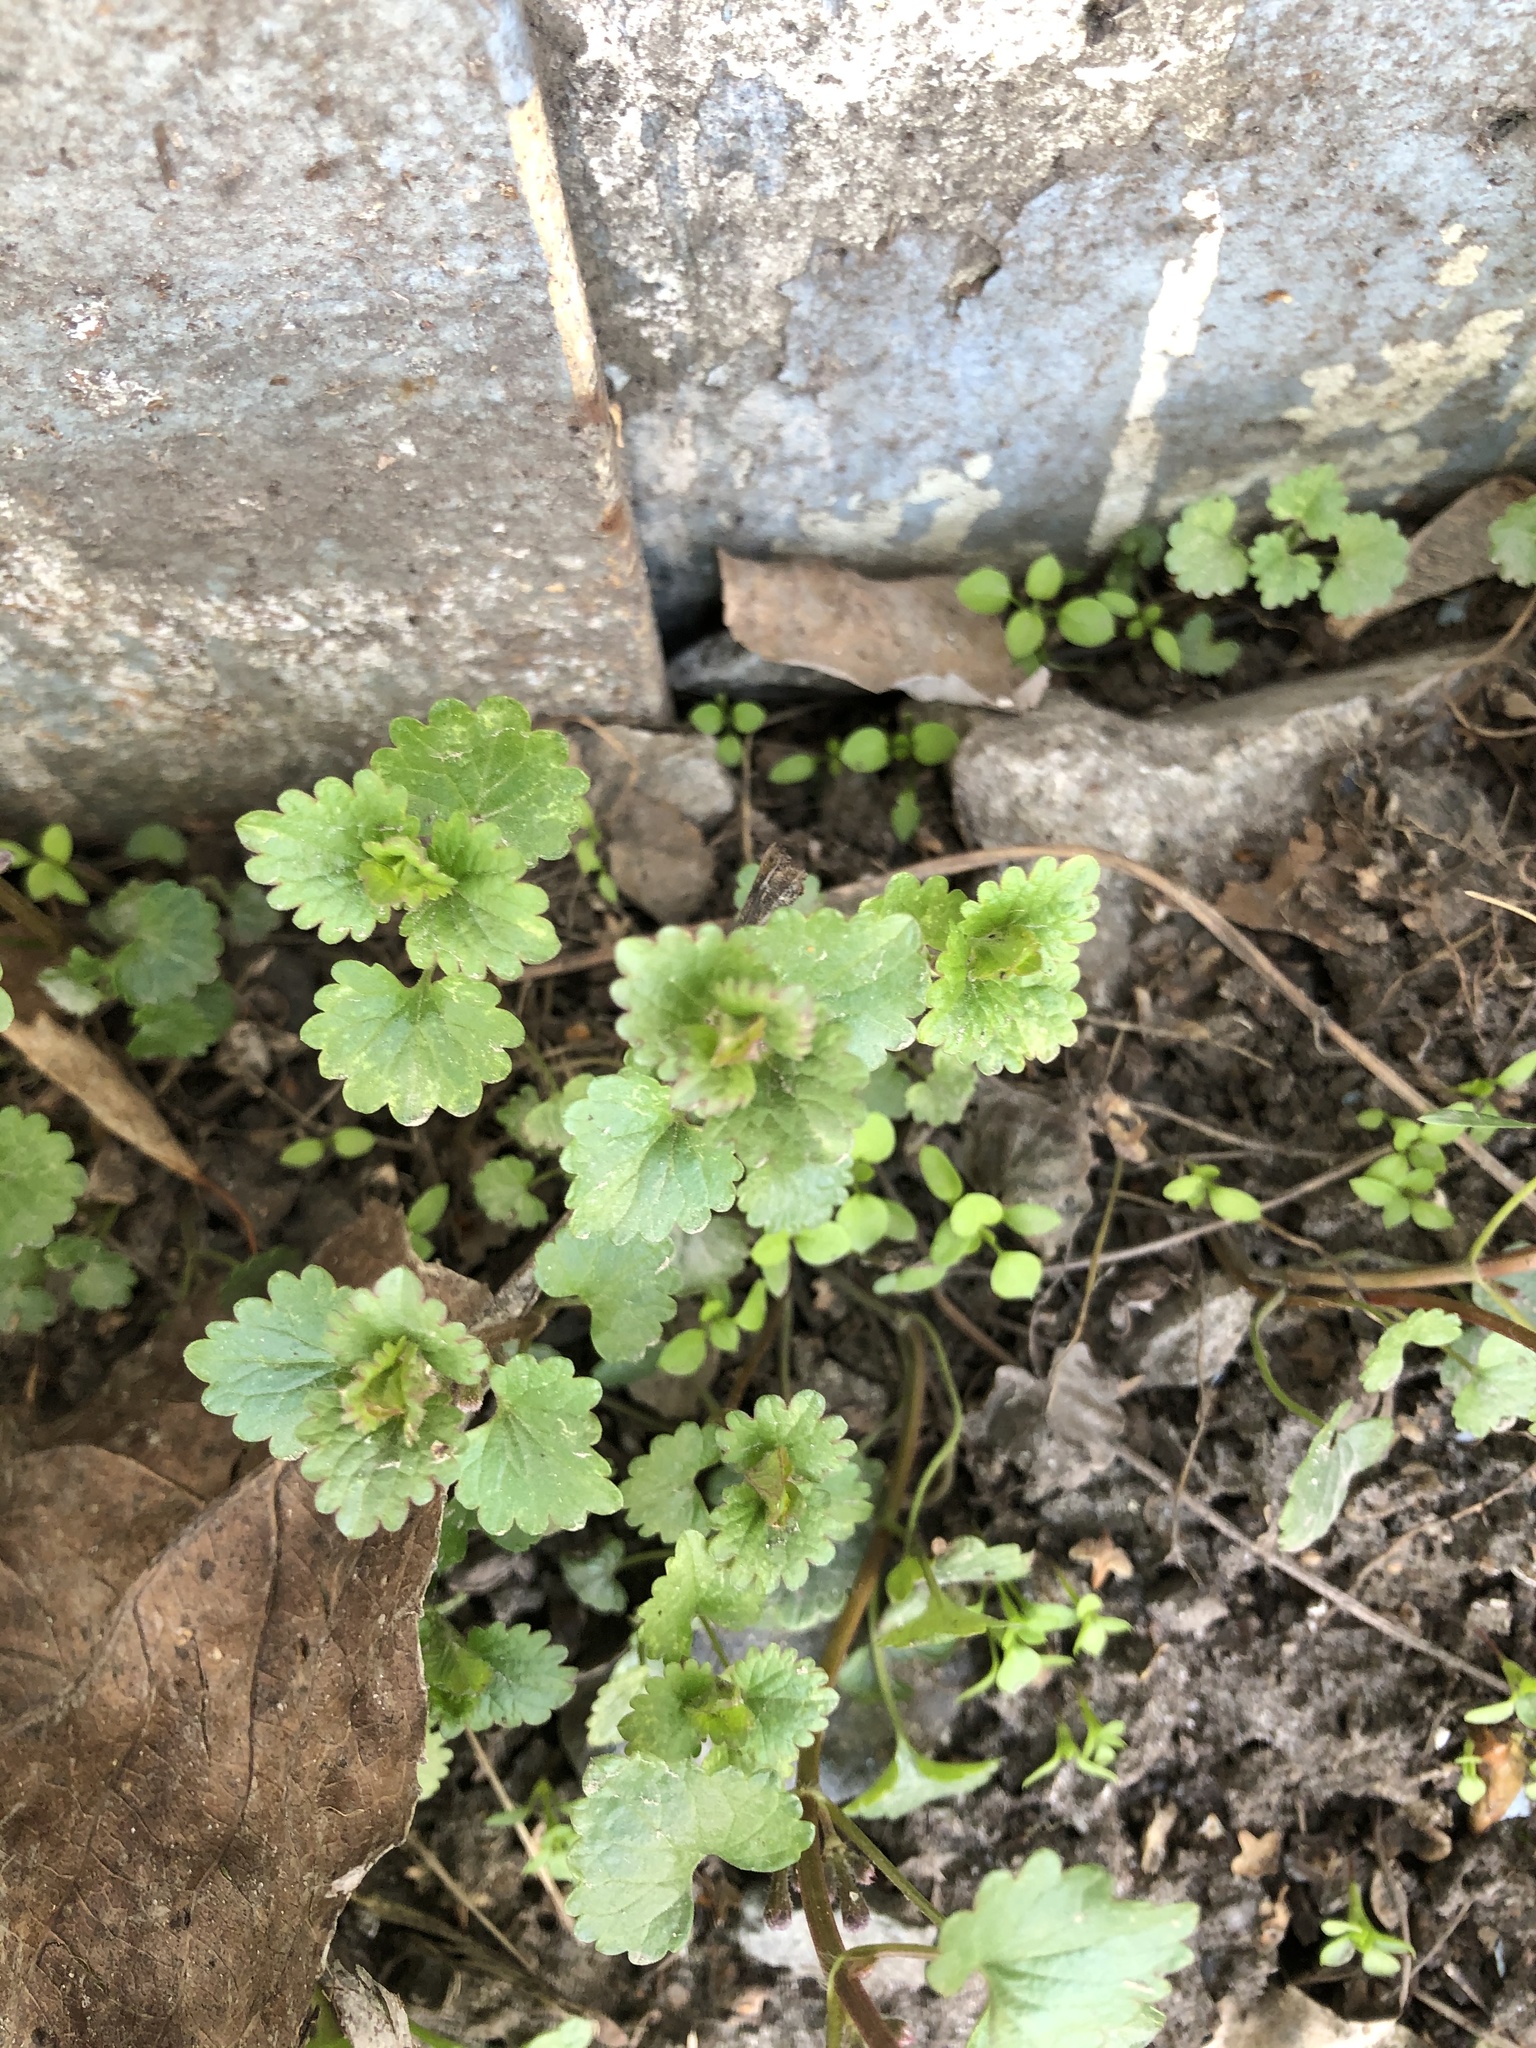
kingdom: Plantae
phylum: Tracheophyta
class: Magnoliopsida
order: Lamiales
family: Lamiaceae
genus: Glechoma
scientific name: Glechoma hederacea
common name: Ground ivy
